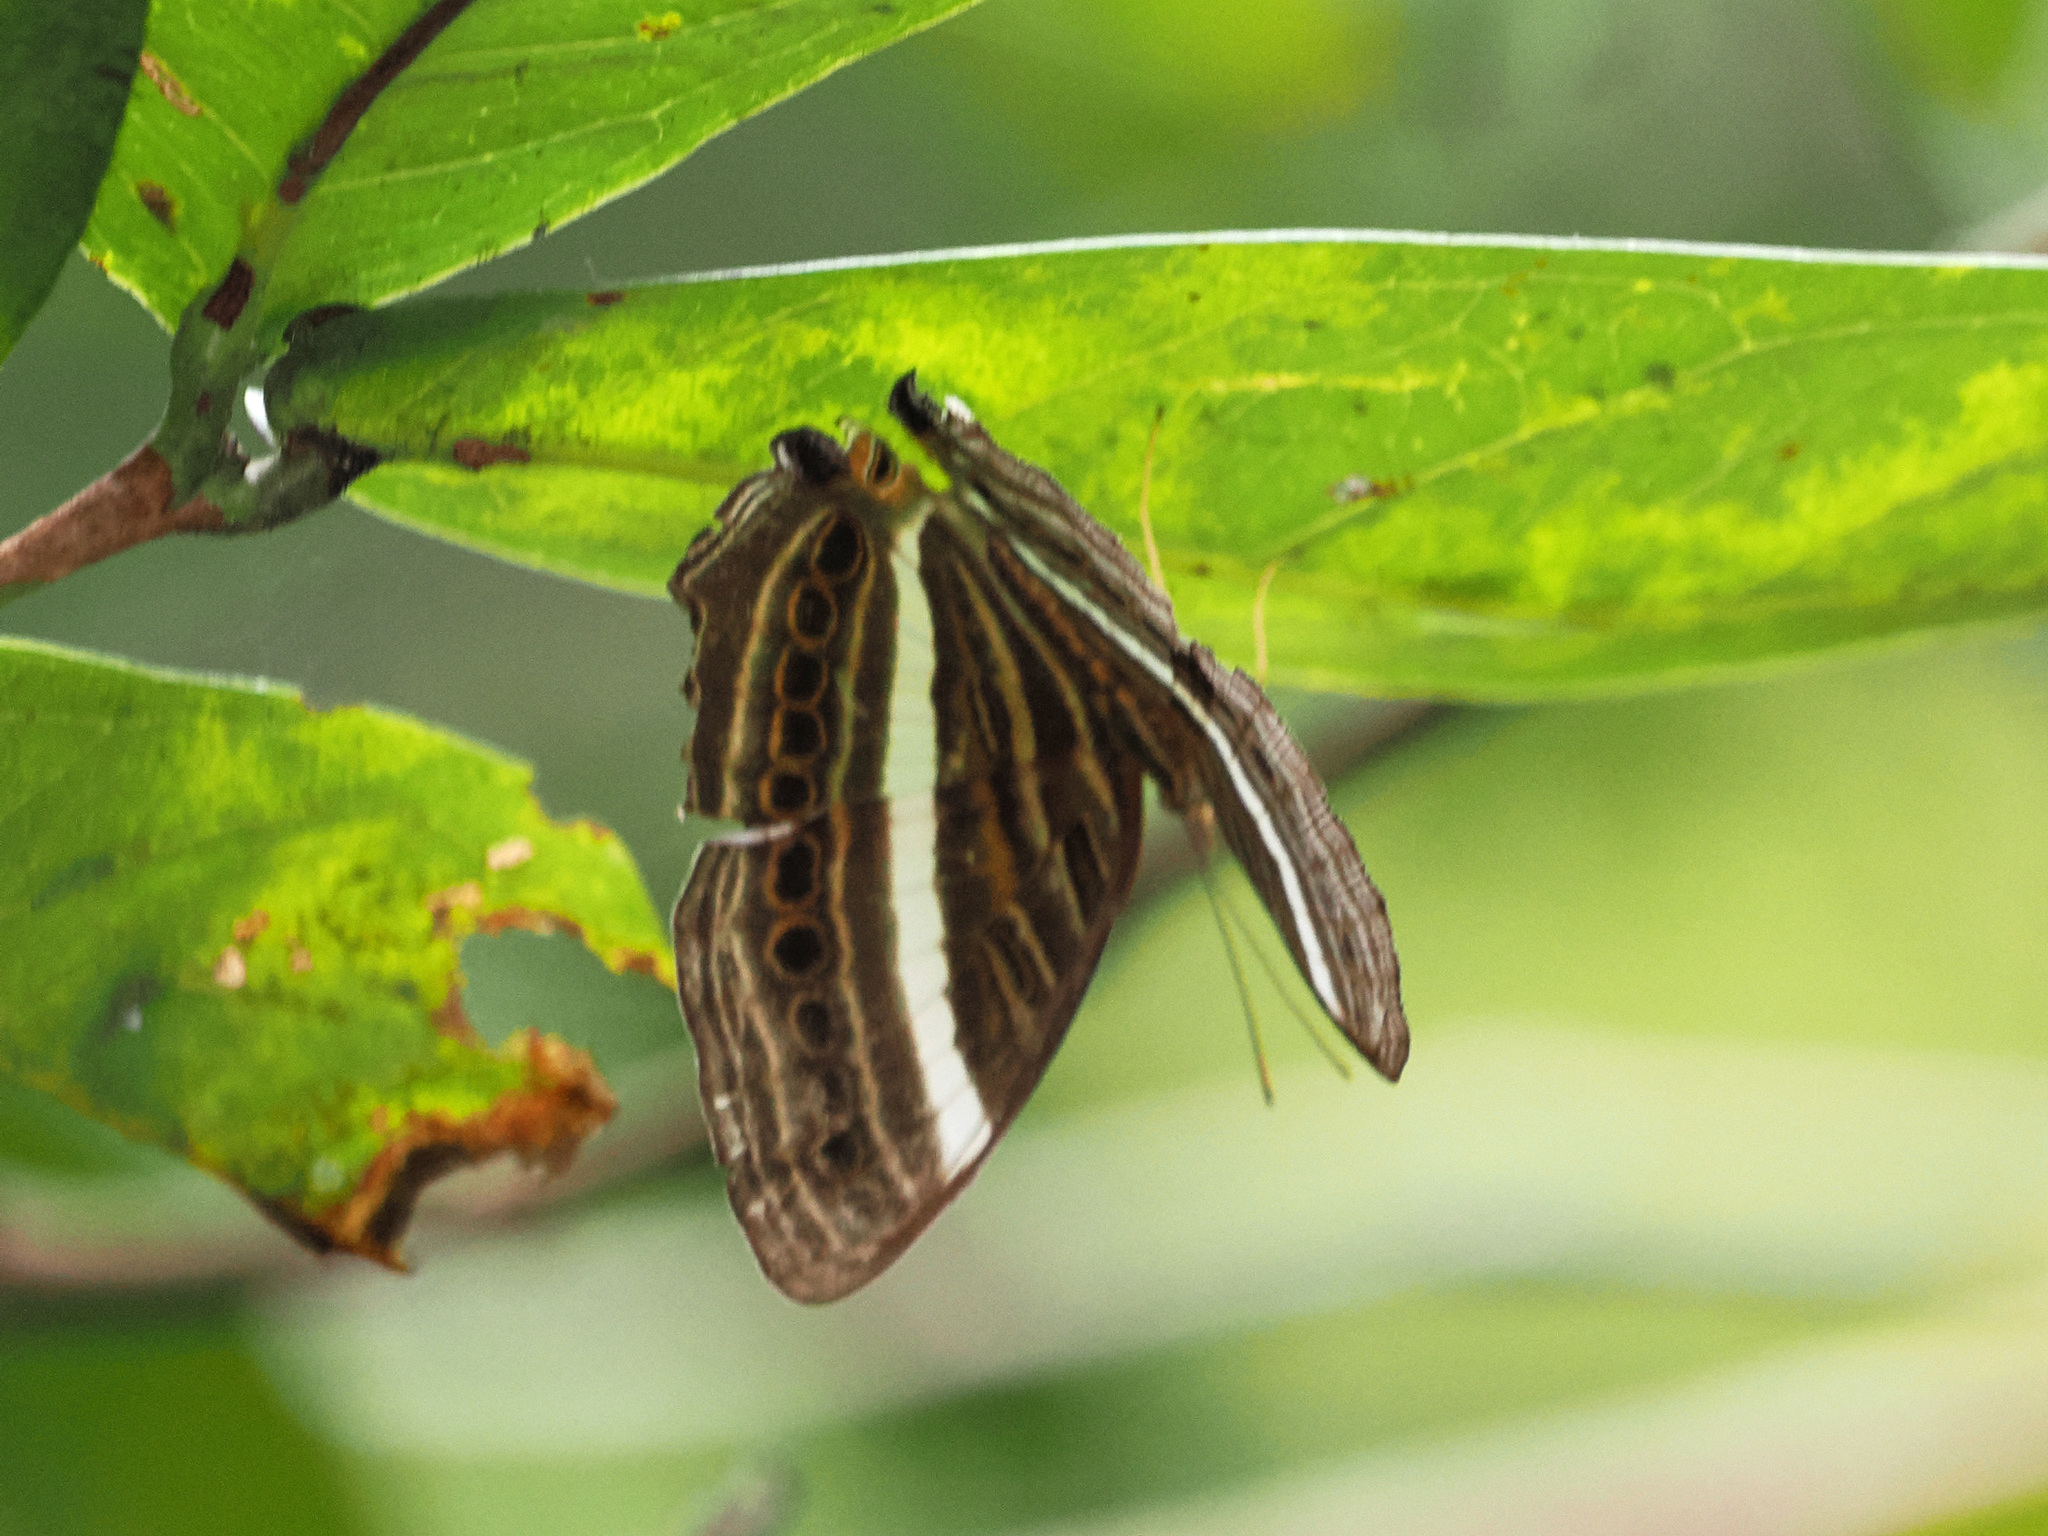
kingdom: Animalia
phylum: Arthropoda
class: Insecta
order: Lepidoptera
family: Nymphalidae
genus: Cyrestis
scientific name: Cyrestis strigata
